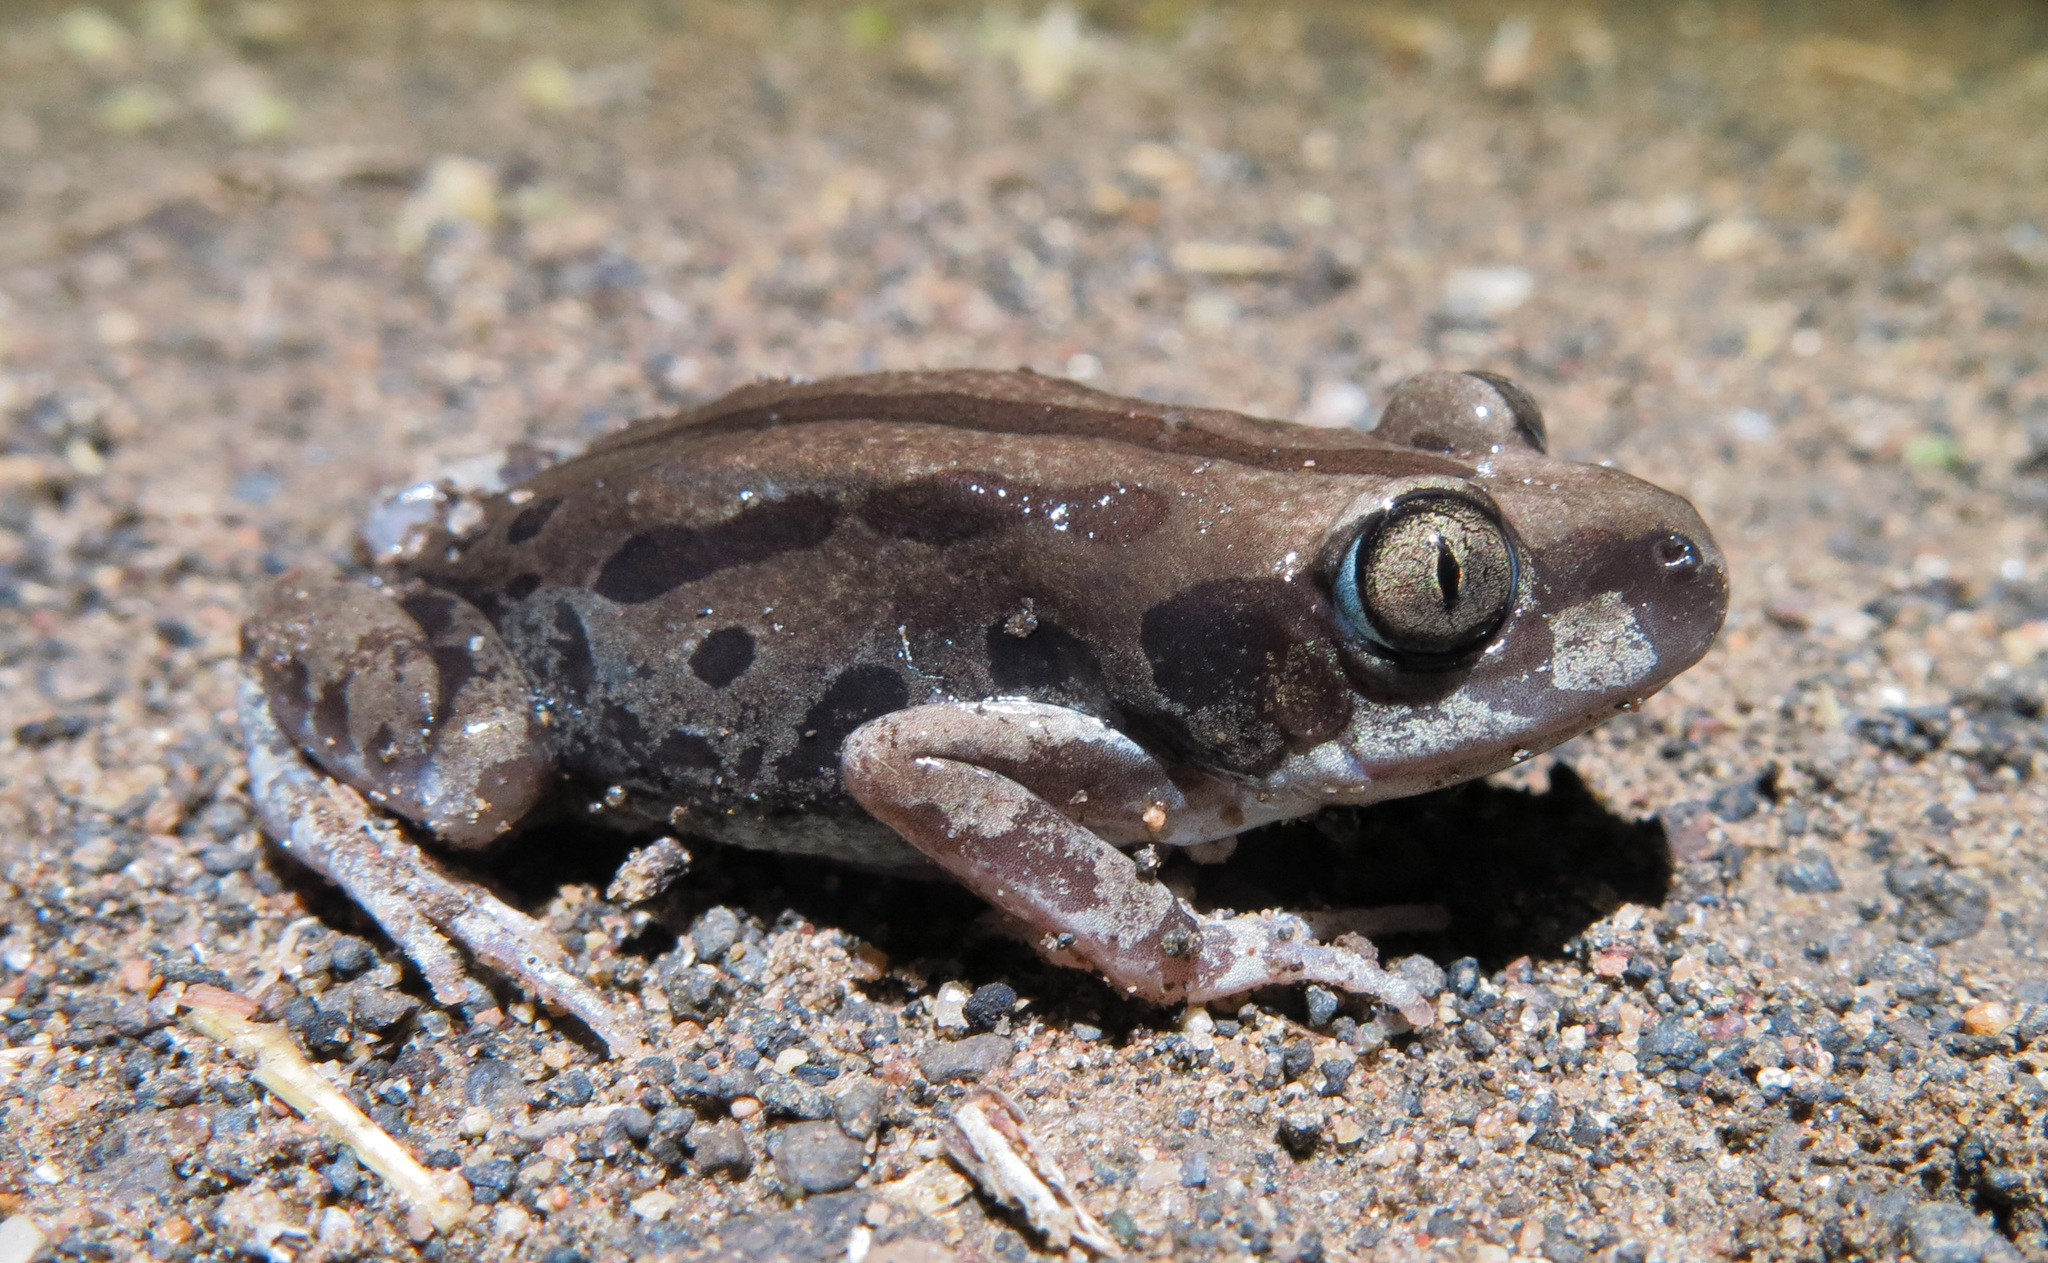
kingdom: Animalia
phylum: Chordata
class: Amphibia
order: Anura
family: Hyperoliidae
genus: Kassina
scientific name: Kassina senegalensis
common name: Senegal land frog
